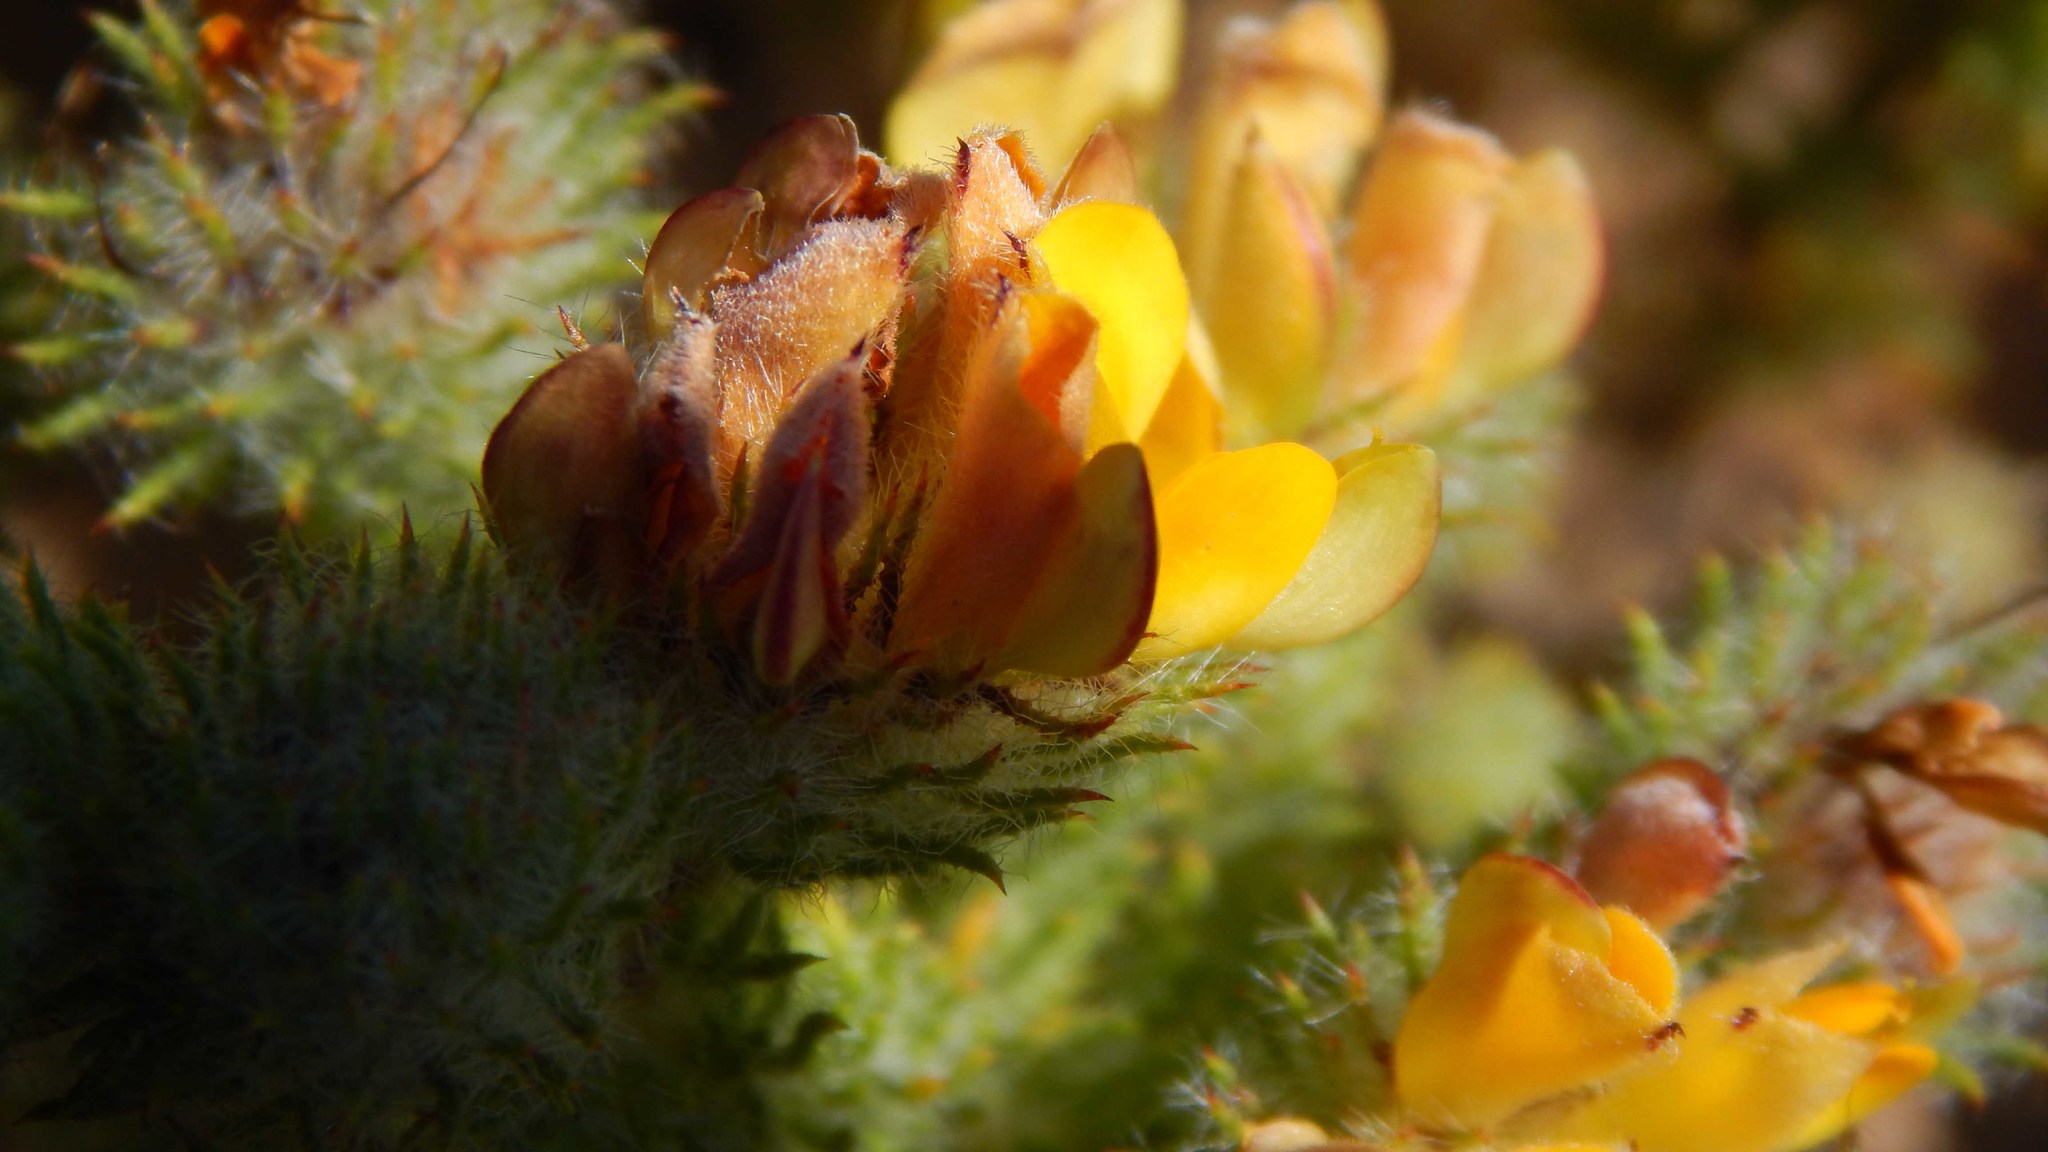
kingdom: Plantae
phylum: Tracheophyta
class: Magnoliopsida
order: Fabales
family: Fabaceae
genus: Aspalathus
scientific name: Aspalathus araneosa
